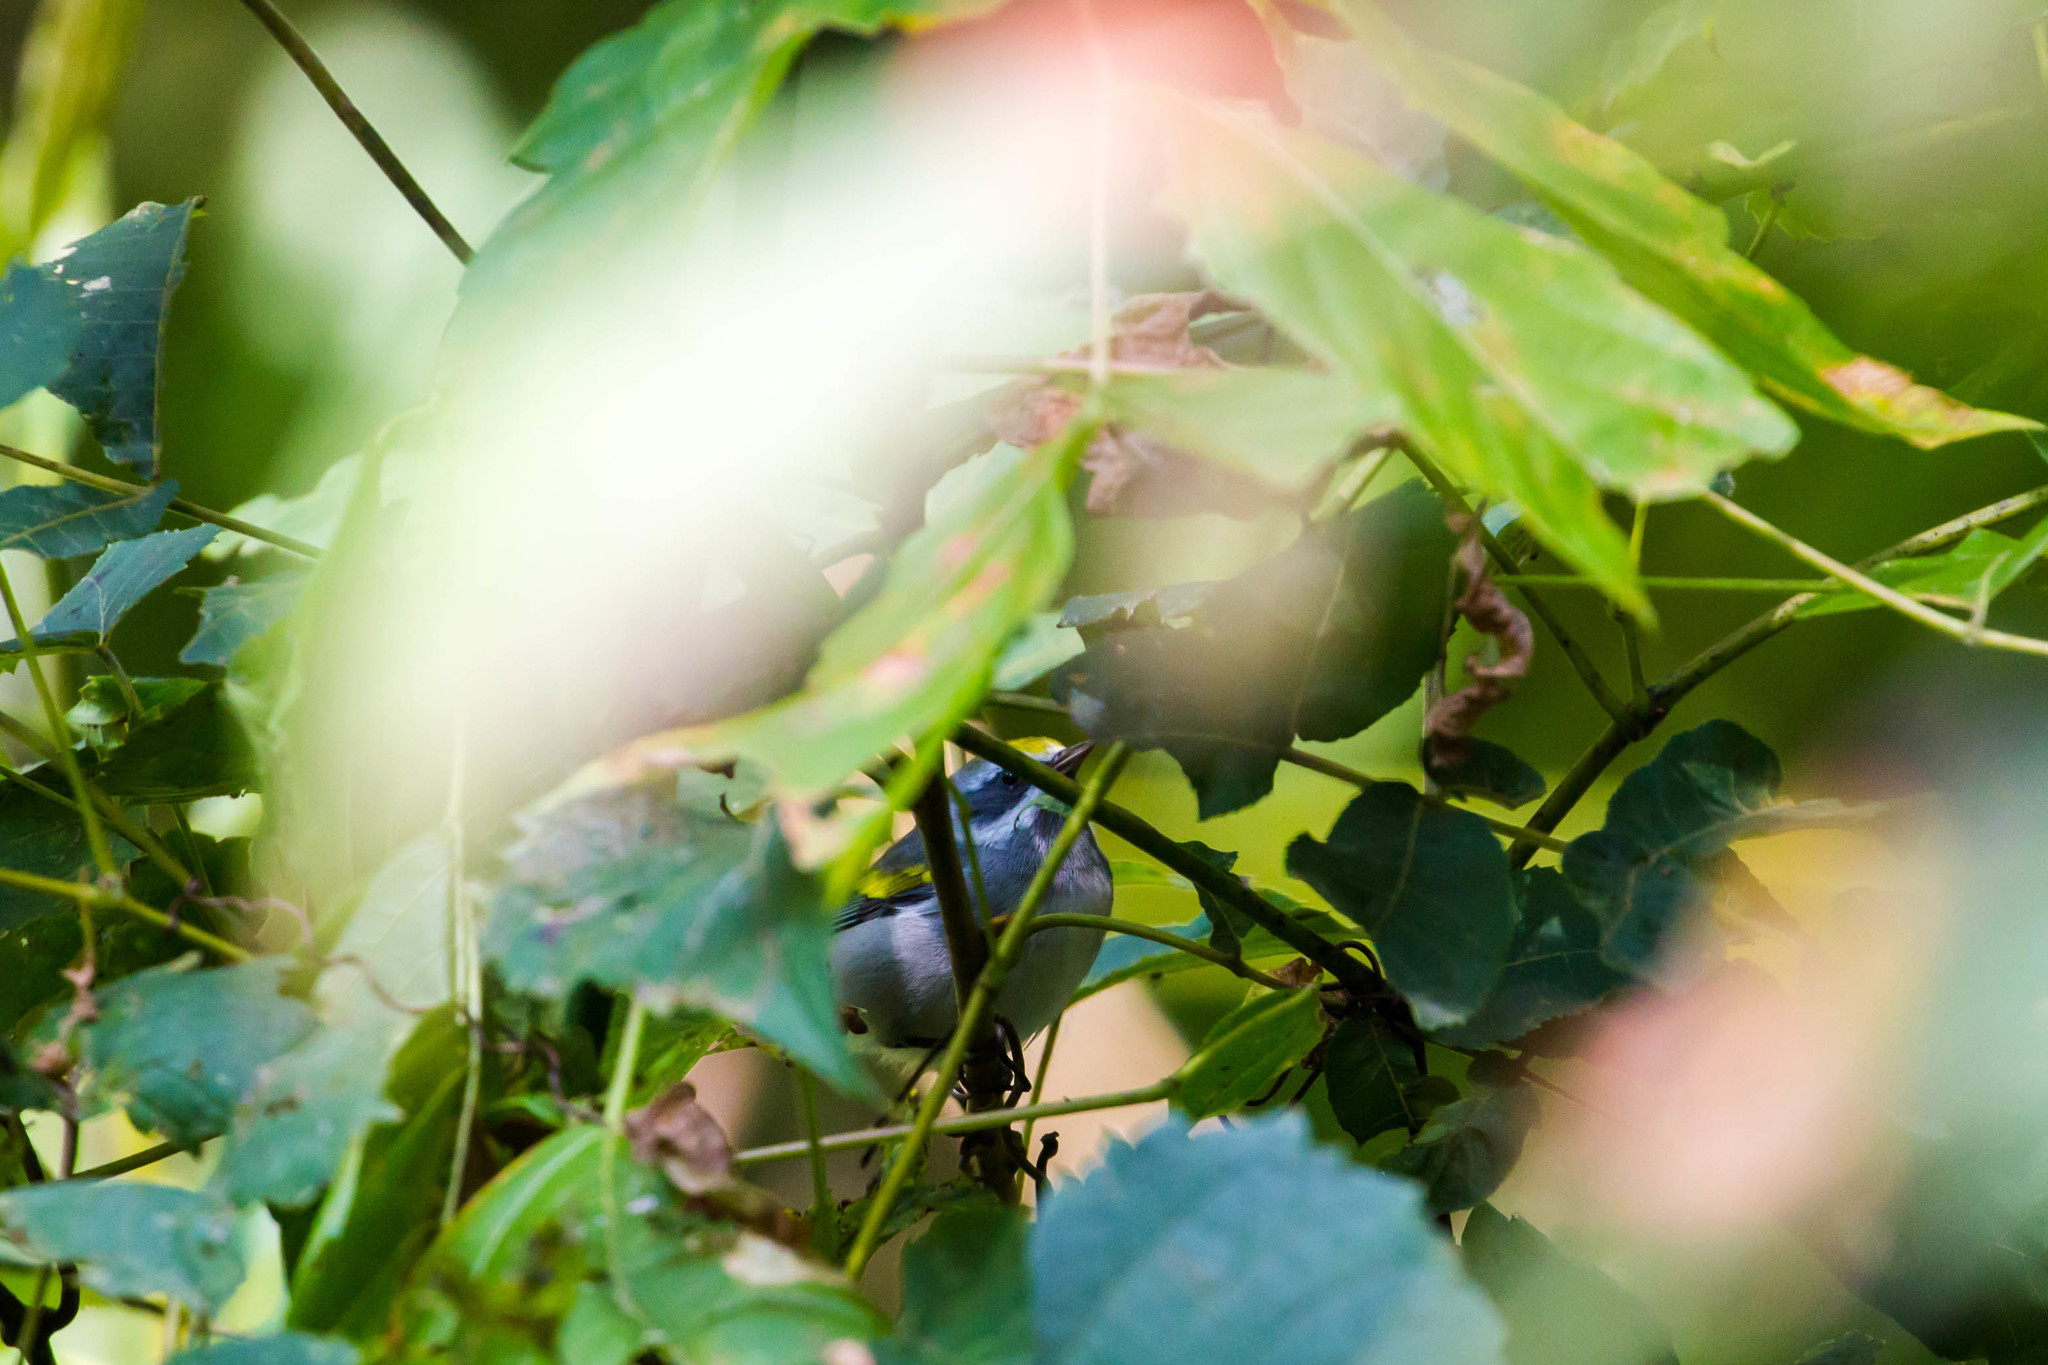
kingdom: Animalia
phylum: Chordata
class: Aves
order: Passeriformes
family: Parulidae
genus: Vermivora
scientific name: Vermivora chrysoptera
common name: Golden-winged warbler
